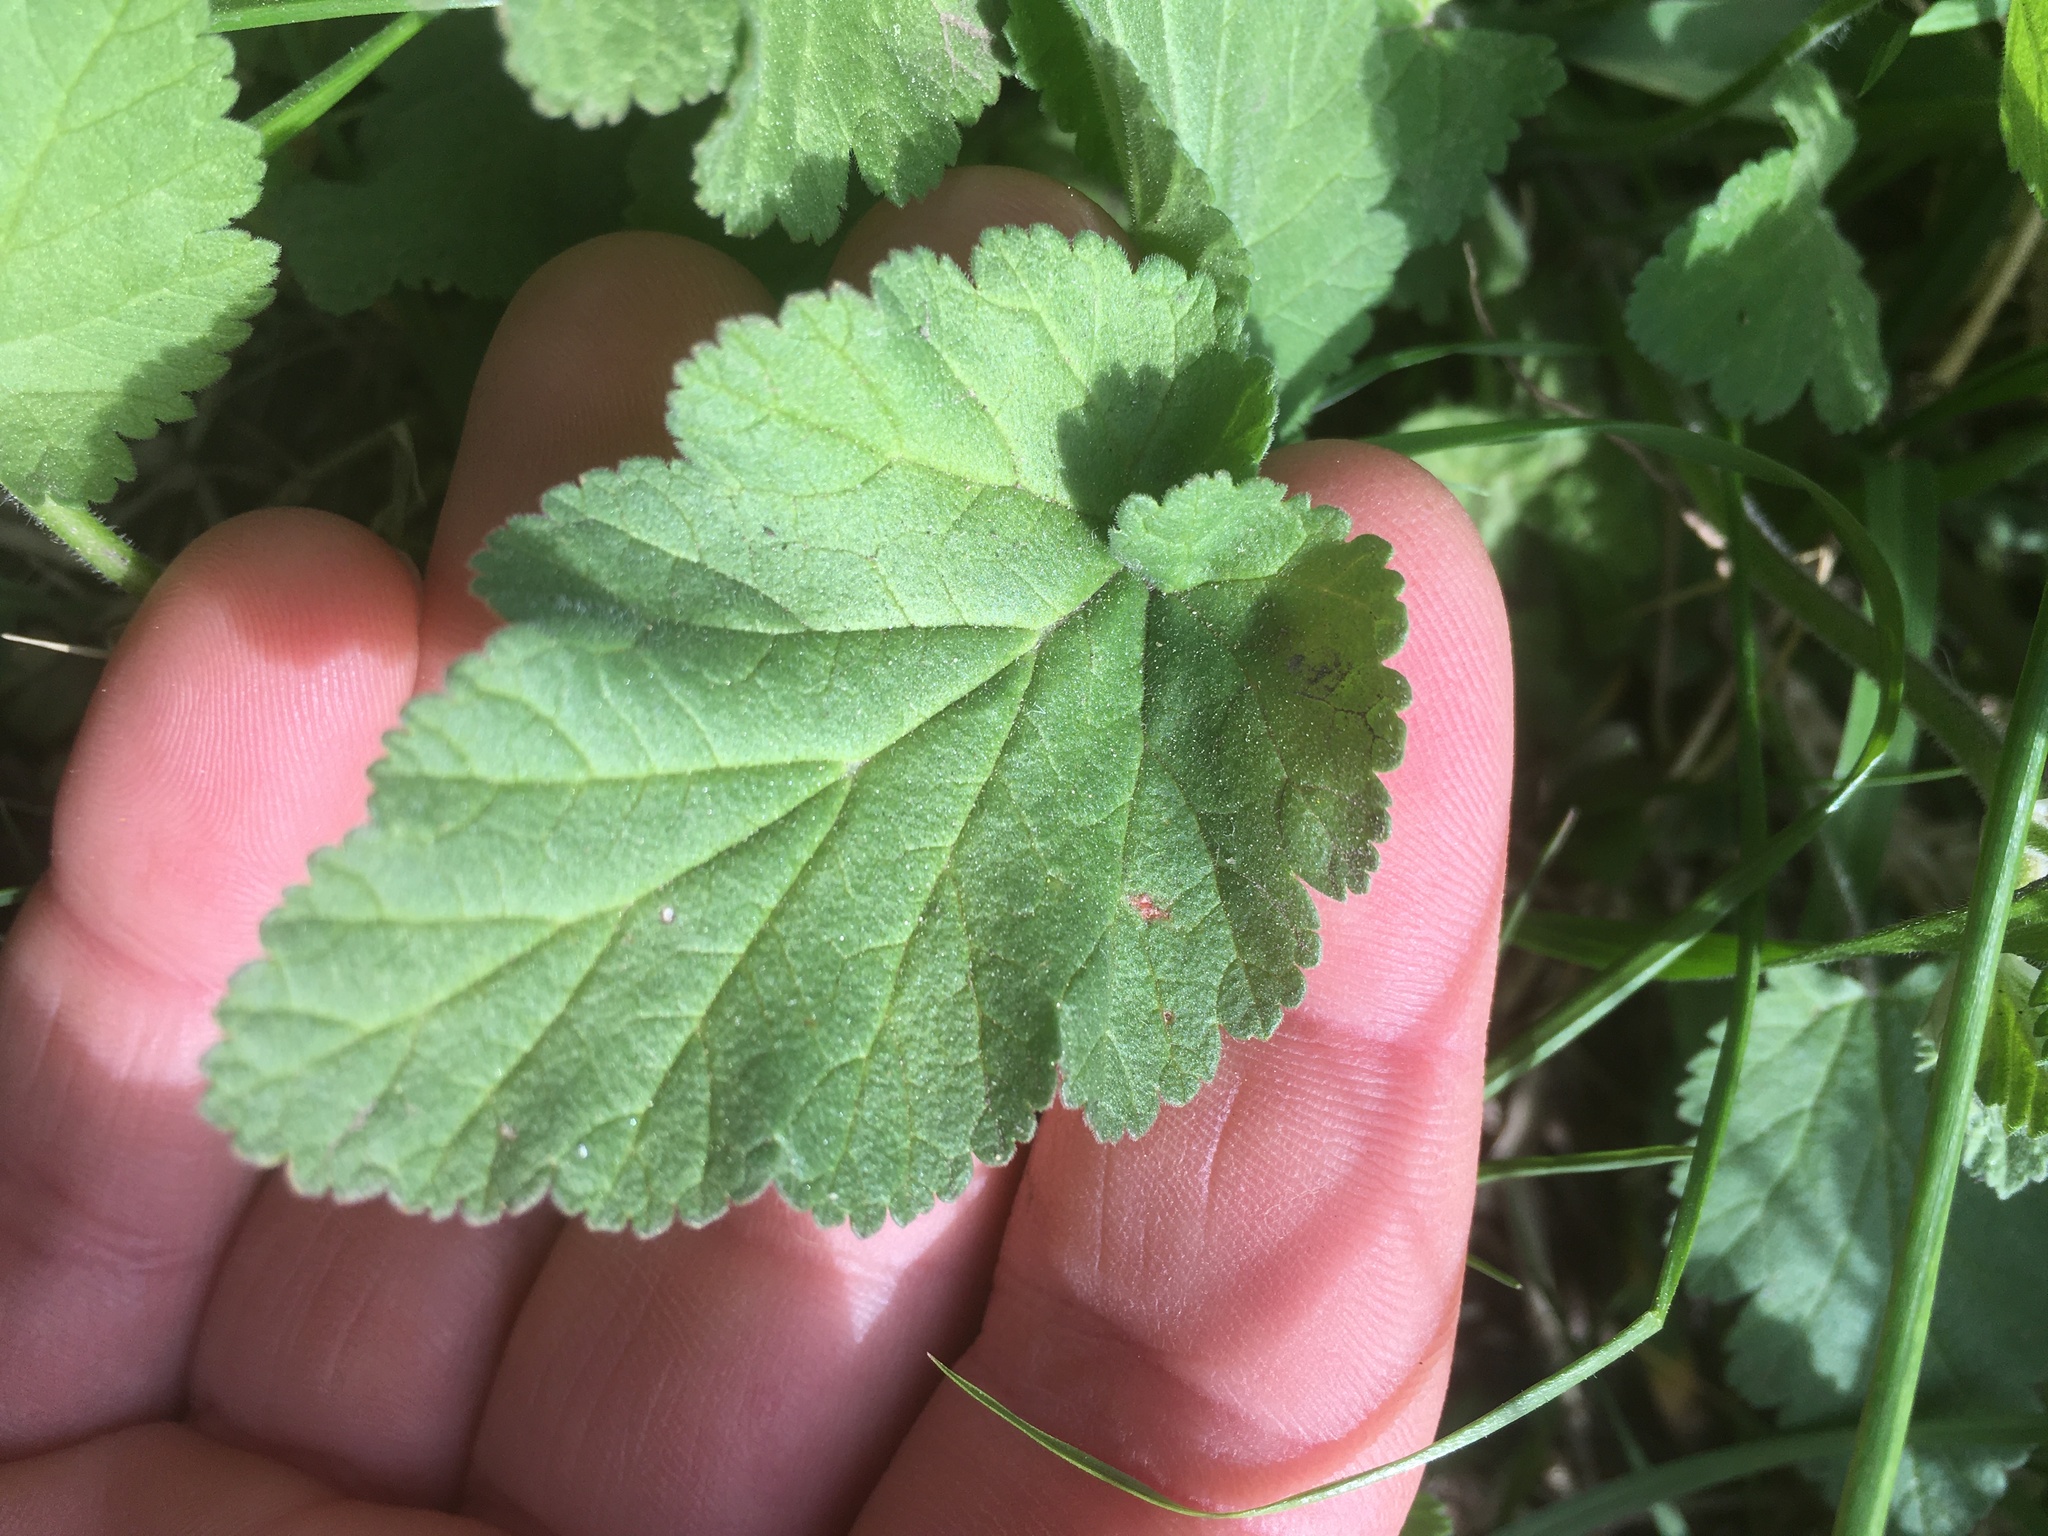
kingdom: Plantae
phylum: Tracheophyta
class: Magnoliopsida
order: Geraniales
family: Geraniaceae
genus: Erodium
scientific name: Erodium malacoides
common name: Soft stork's-bill
